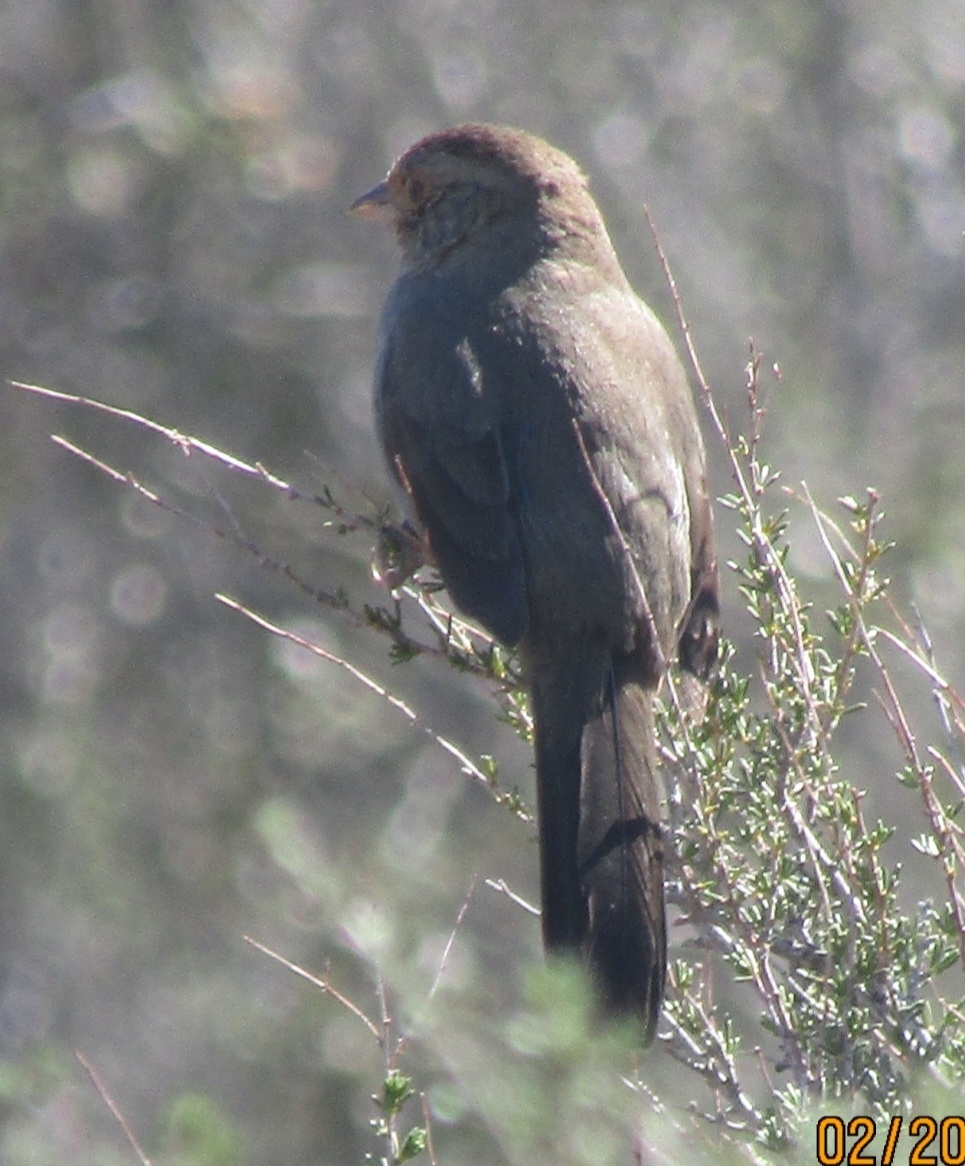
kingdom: Animalia
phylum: Chordata
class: Aves
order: Passeriformes
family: Passerellidae
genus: Melozone
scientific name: Melozone crissalis
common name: California towhee
